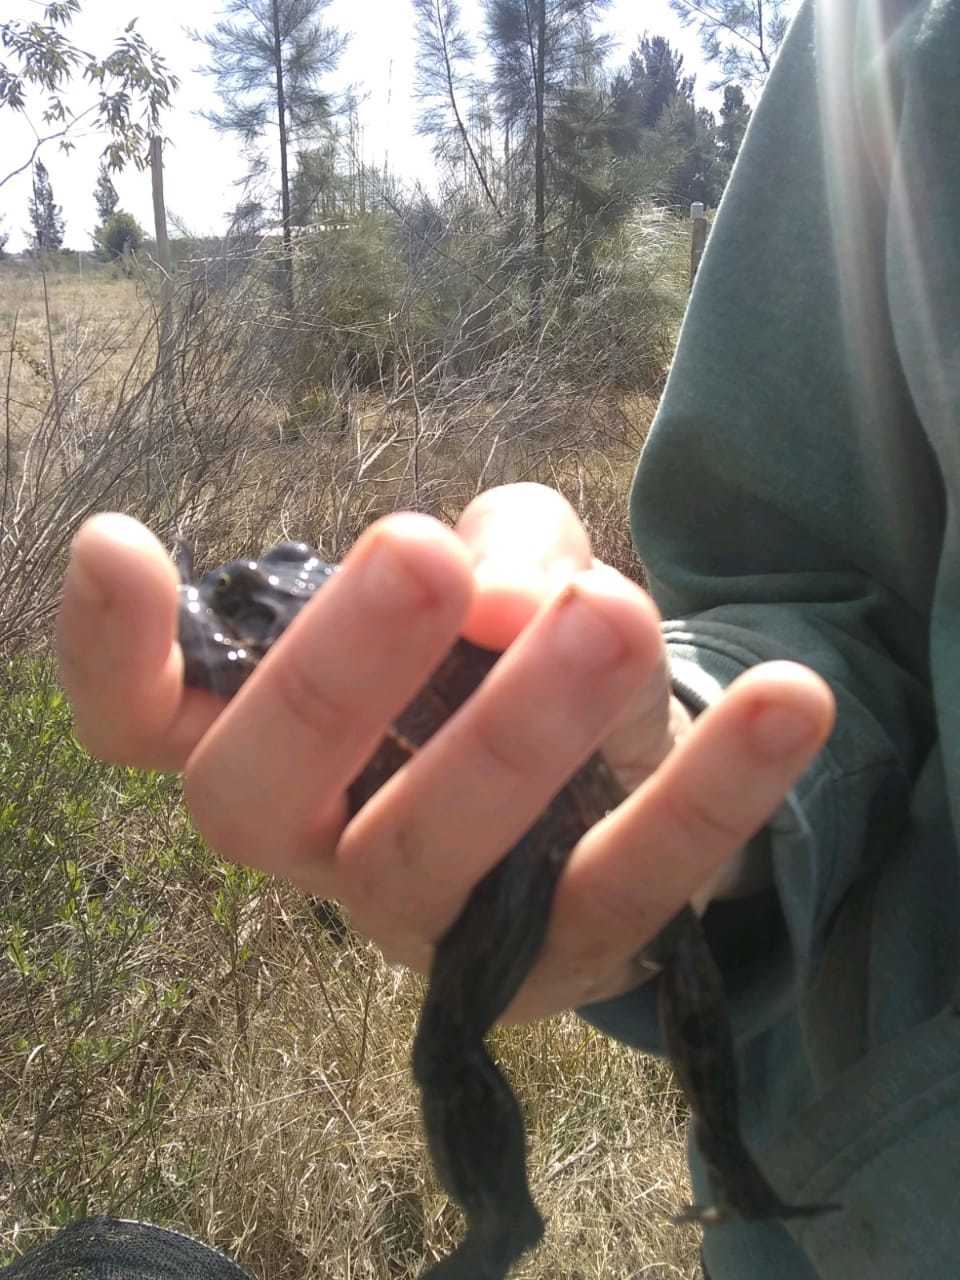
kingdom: Animalia
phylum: Chordata
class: Amphibia
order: Anura
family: Leptodactylidae
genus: Leptodactylus
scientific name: Leptodactylus luctator
